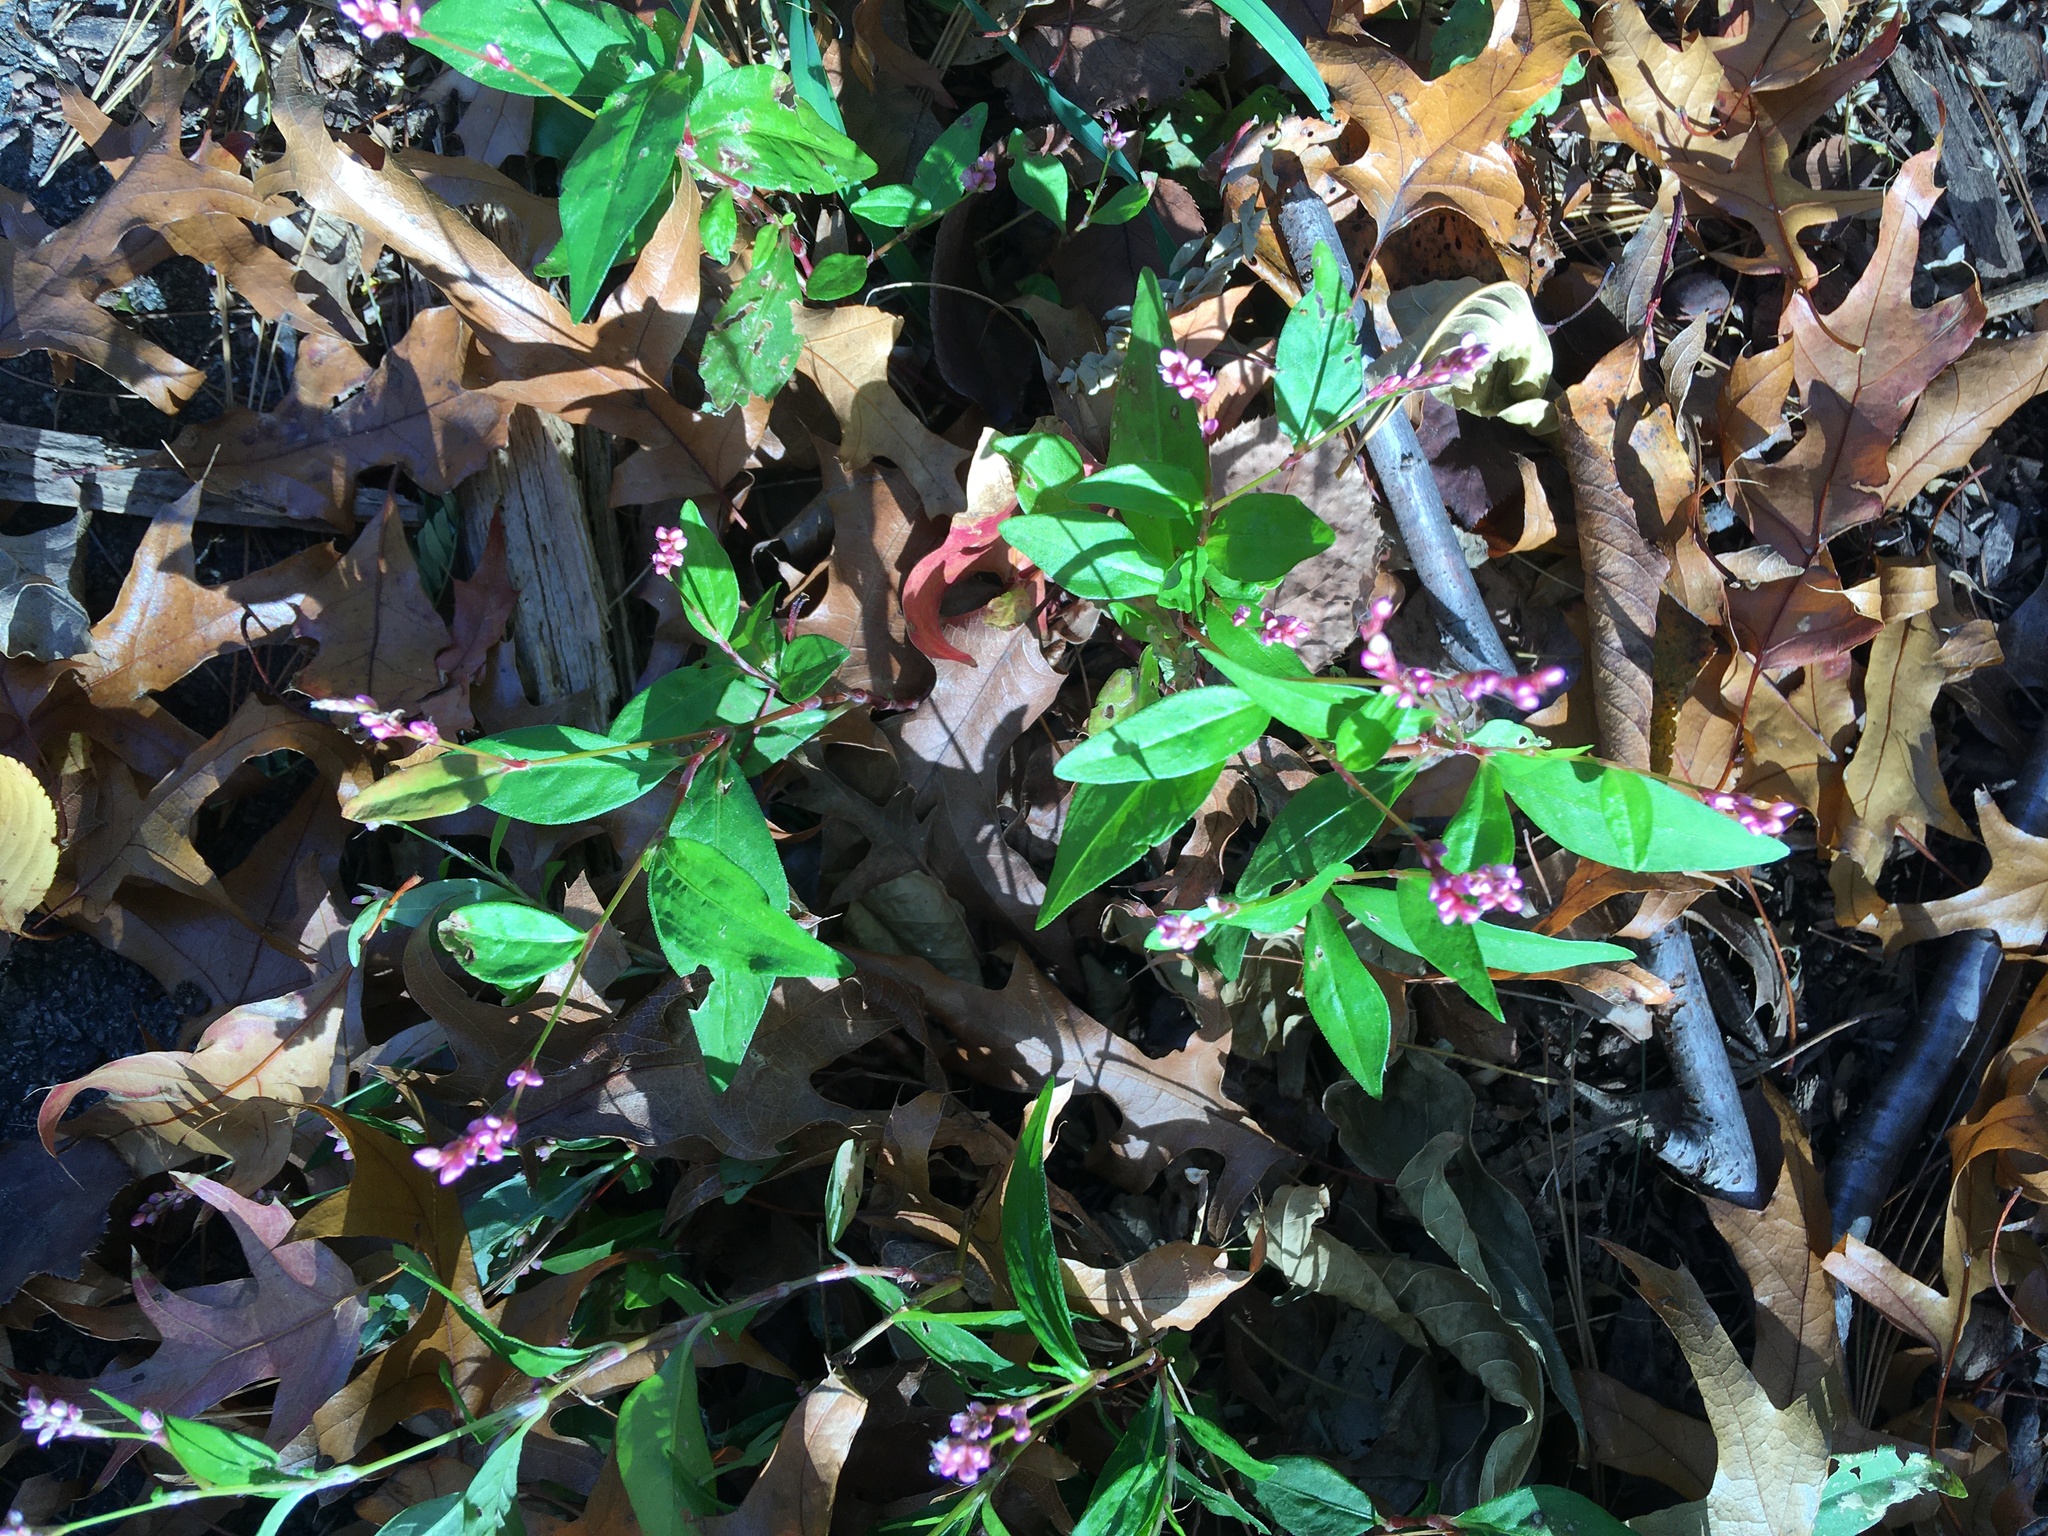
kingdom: Plantae
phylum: Tracheophyta
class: Magnoliopsida
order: Caryophyllales
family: Polygonaceae
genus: Persicaria
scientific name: Persicaria longiseta
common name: Bristly lady's-thumb
